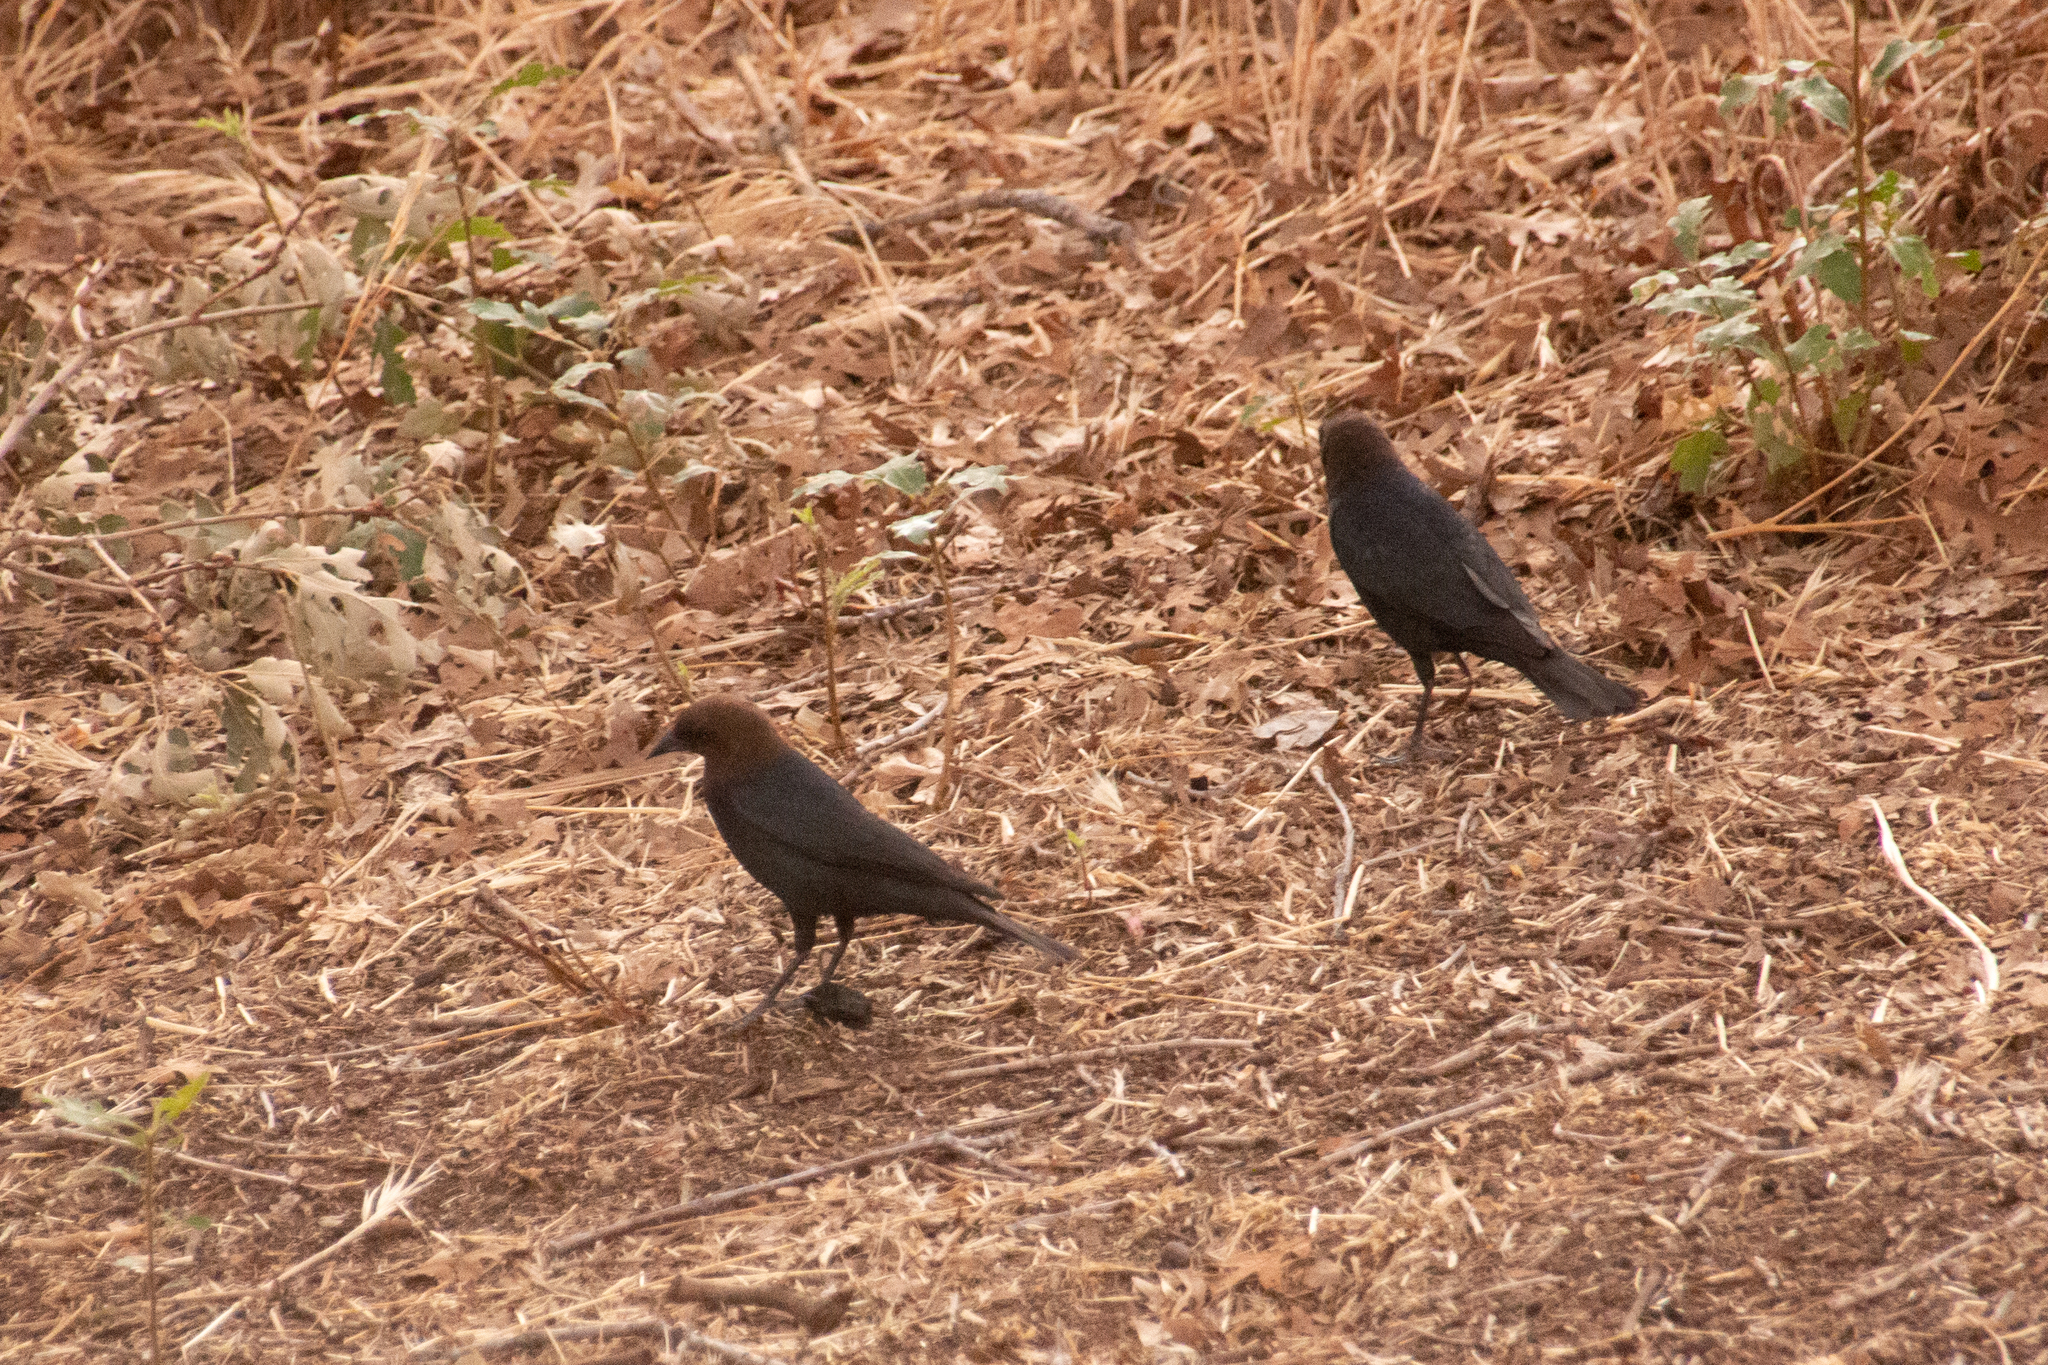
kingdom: Animalia
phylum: Chordata
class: Aves
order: Passeriformes
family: Icteridae
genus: Molothrus
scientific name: Molothrus ater
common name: Brown-headed cowbird
